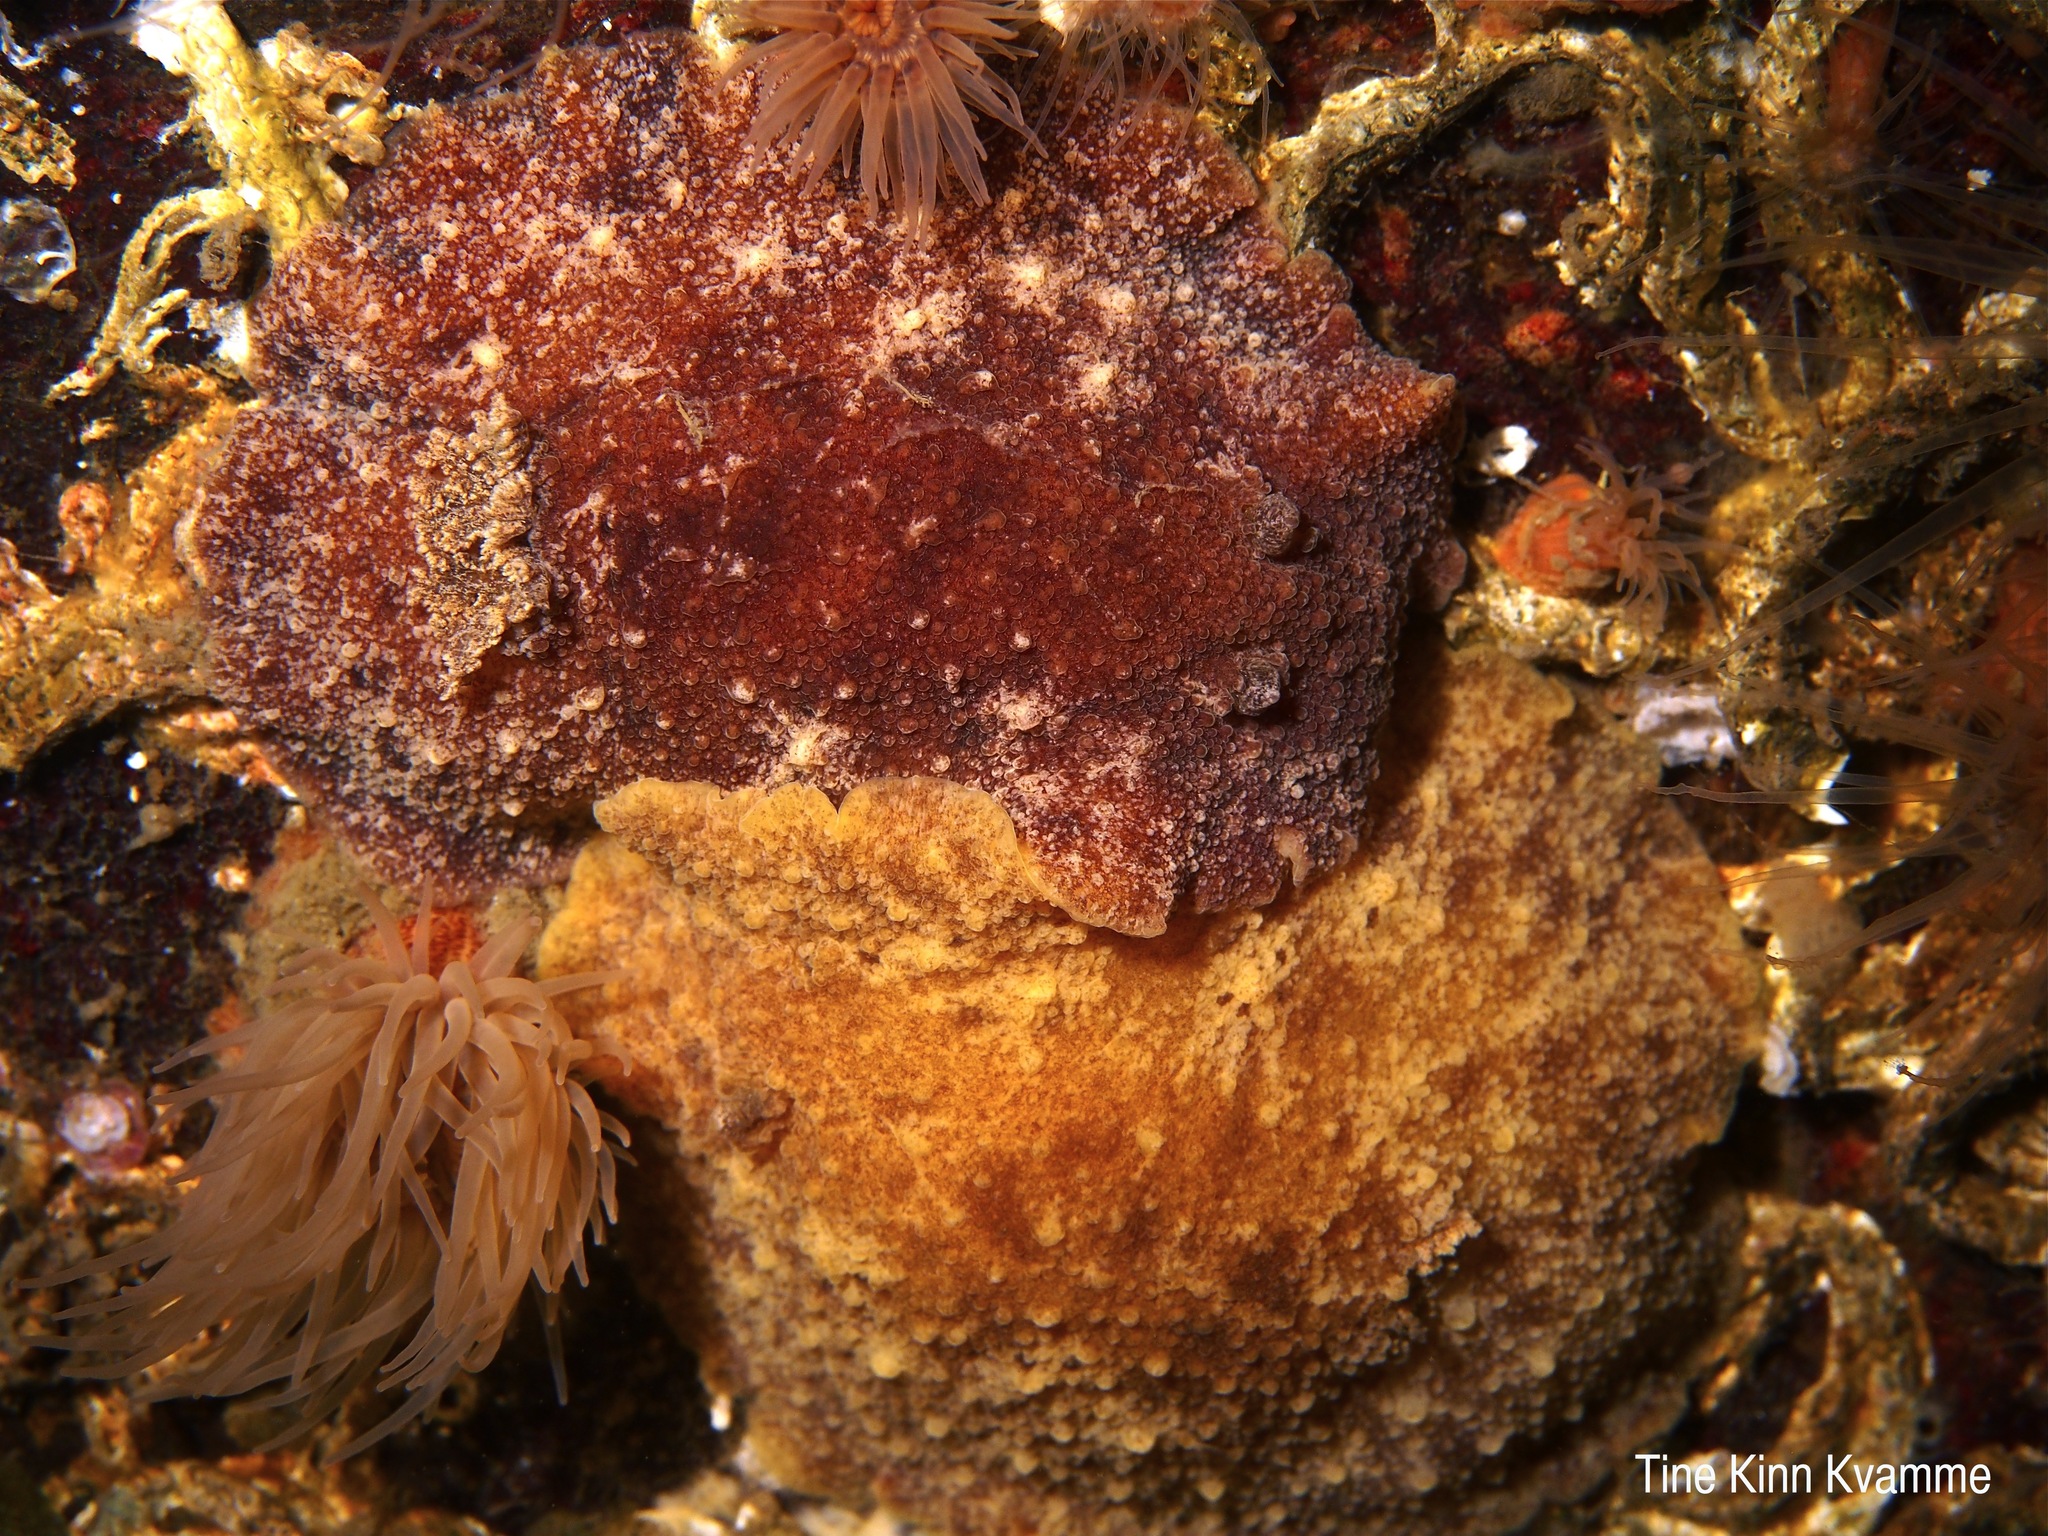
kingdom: Animalia
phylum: Mollusca
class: Gastropoda
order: Nudibranchia
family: Discodorididae
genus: Geitodoris
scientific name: Geitodoris planata
